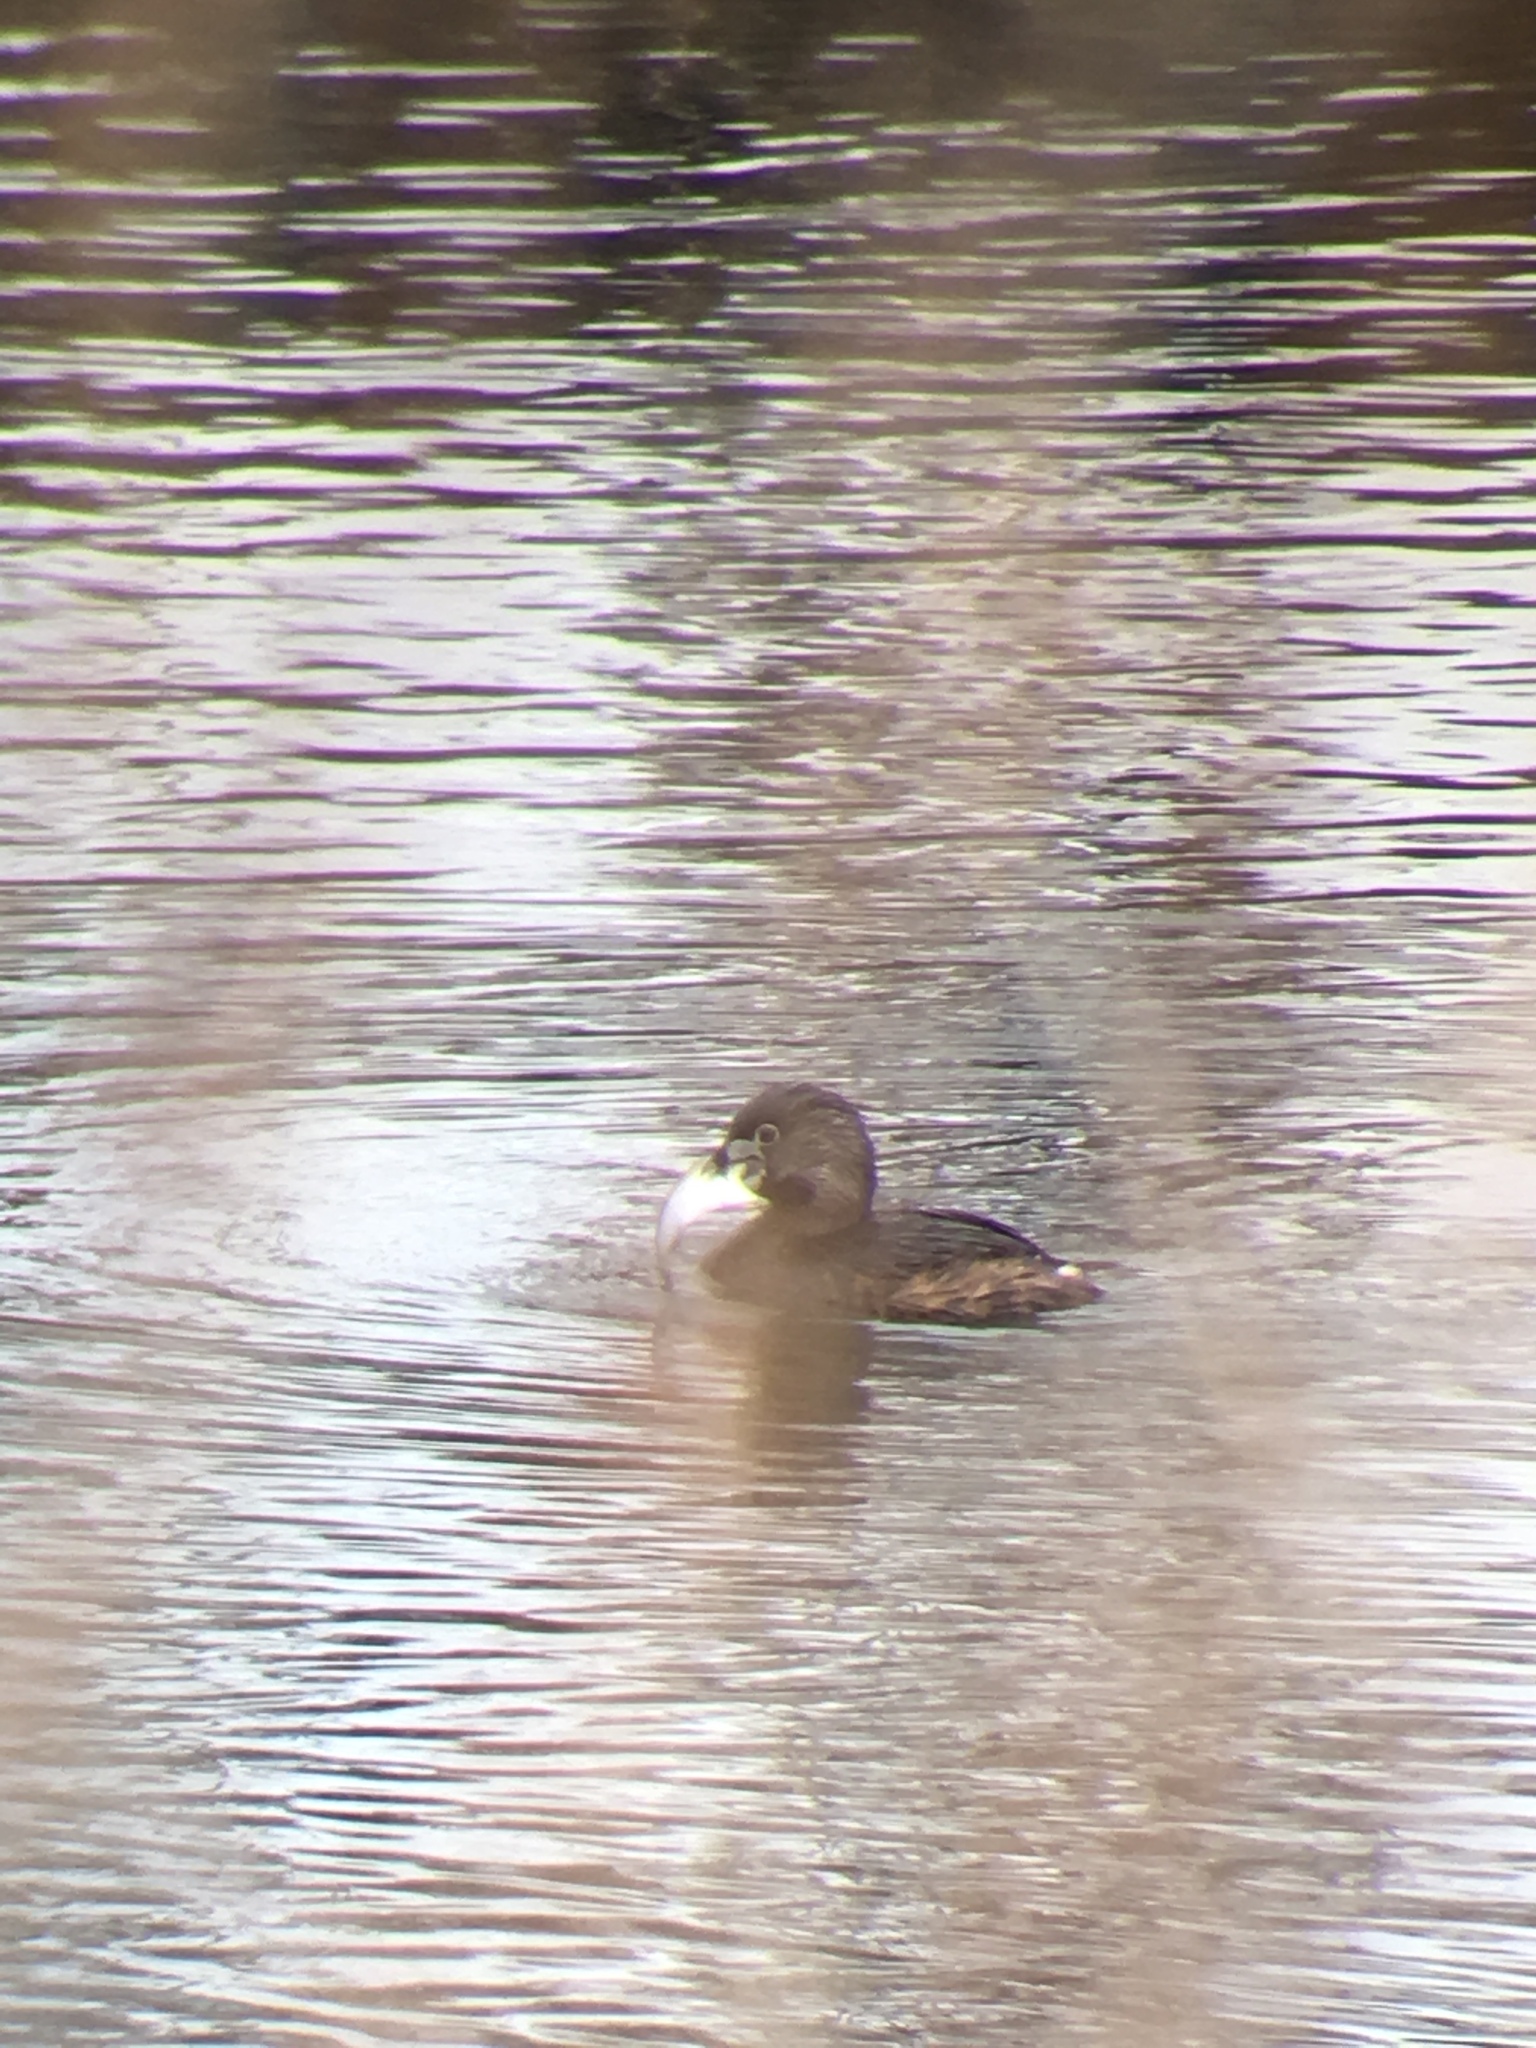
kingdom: Animalia
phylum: Chordata
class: Aves
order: Podicipediformes
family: Podicipedidae
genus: Podilymbus
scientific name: Podilymbus podiceps
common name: Pied-billed grebe
